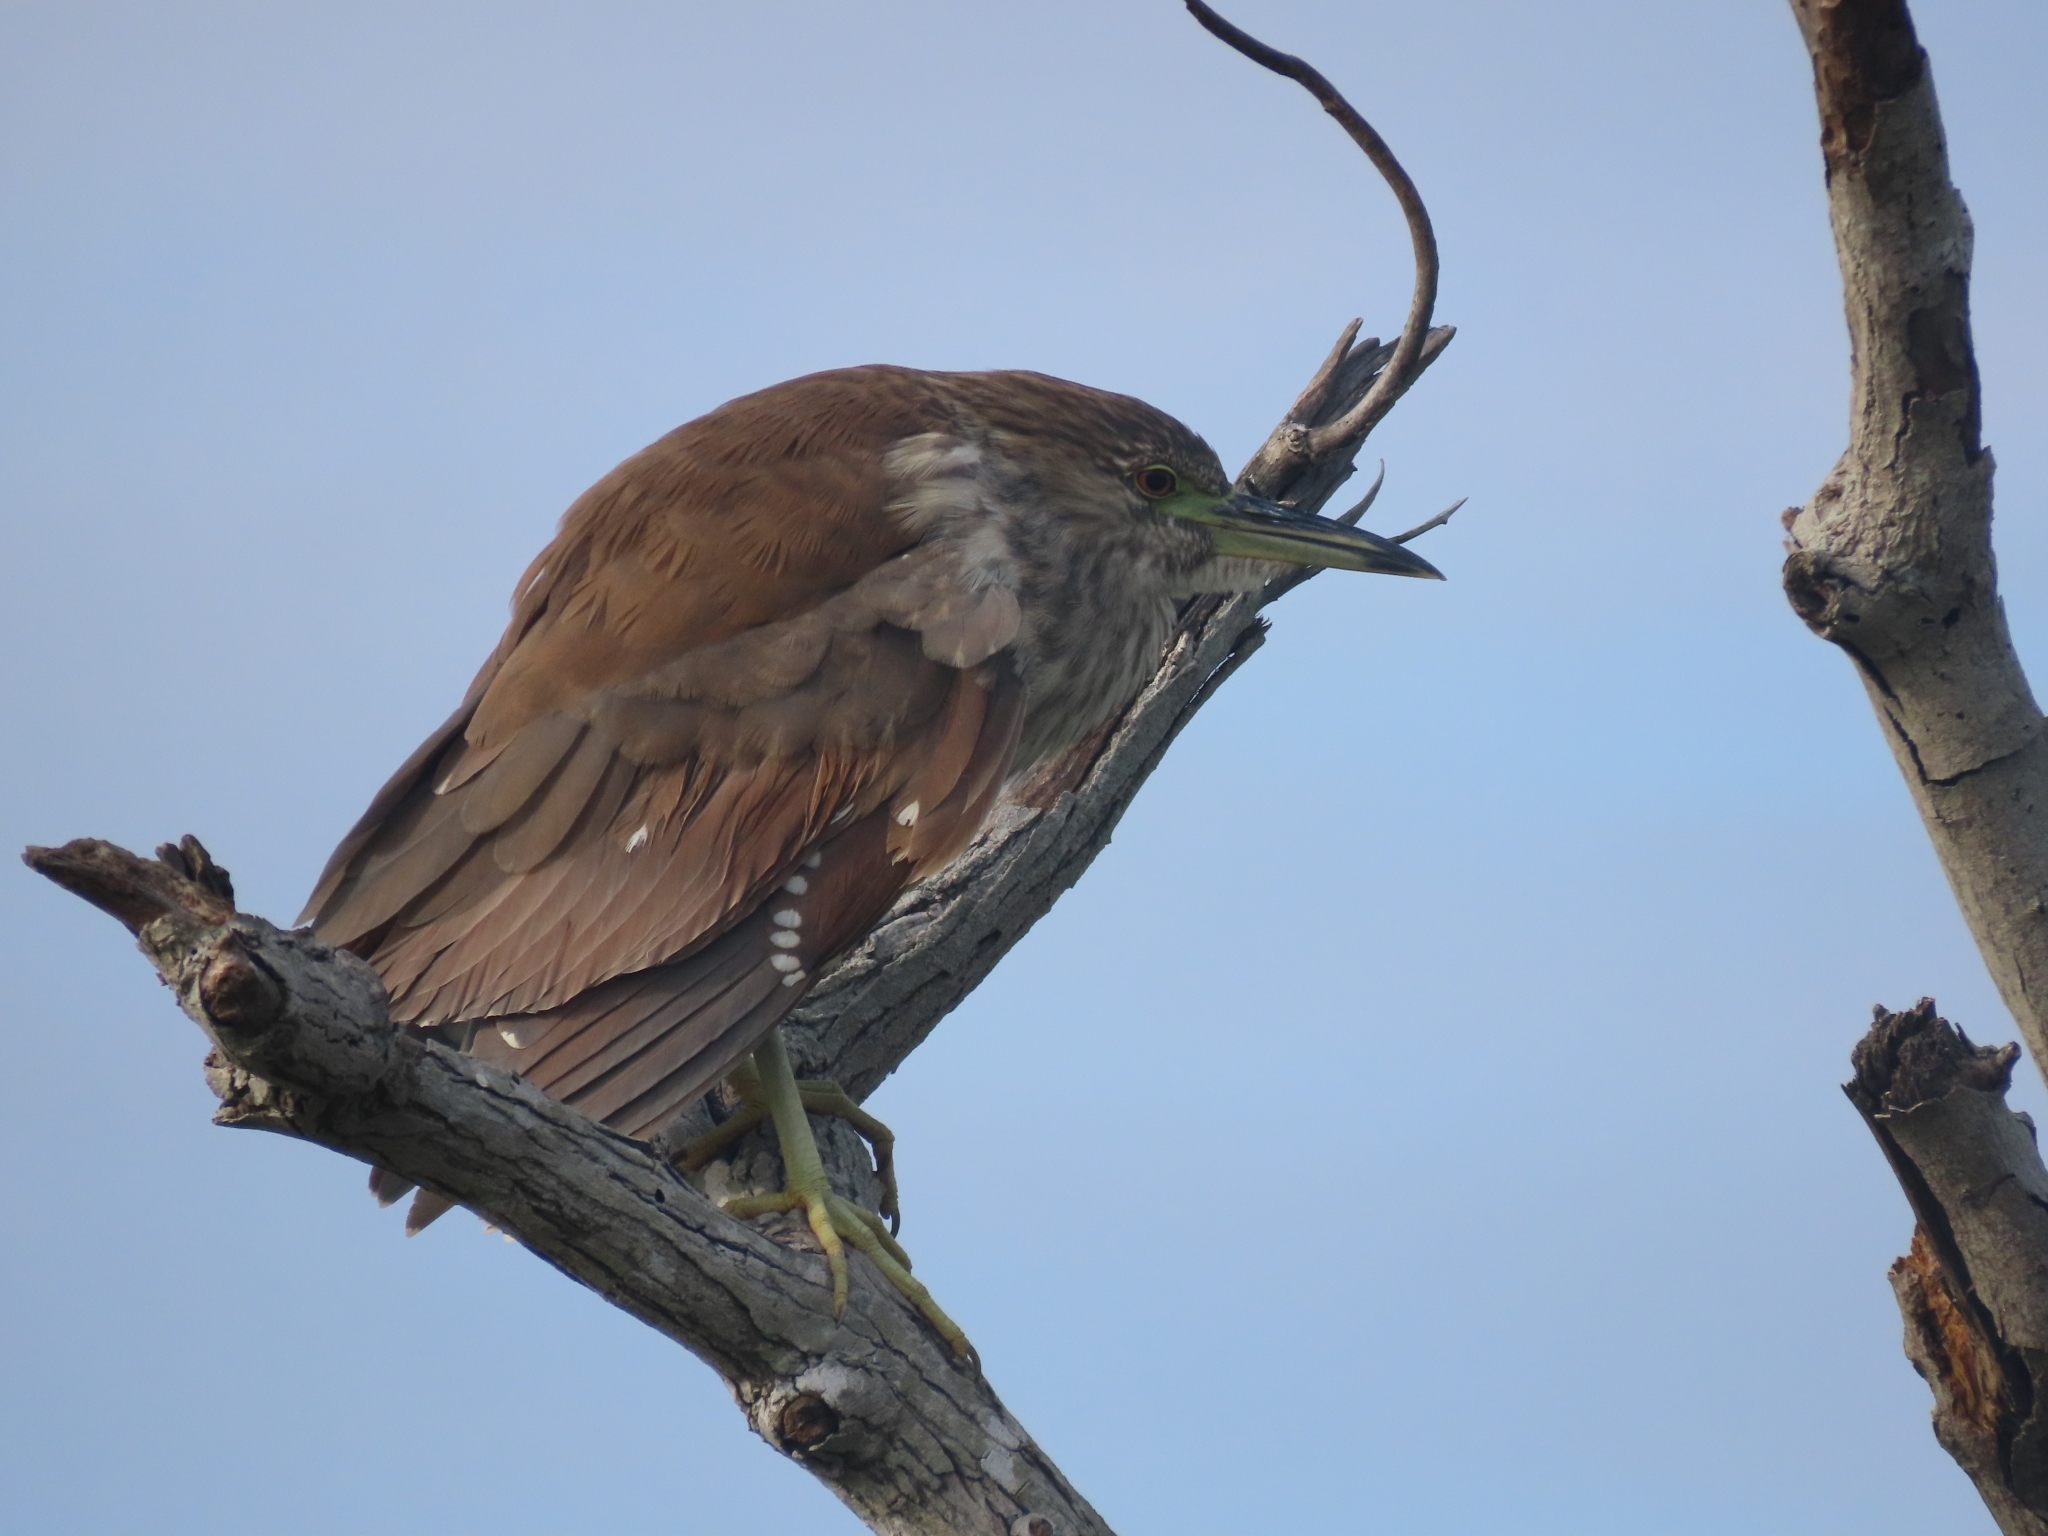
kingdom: Animalia
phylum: Chordata
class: Aves
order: Pelecaniformes
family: Ardeidae
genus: Nycticorax
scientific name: Nycticorax nycticorax
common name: Black-crowned night heron
